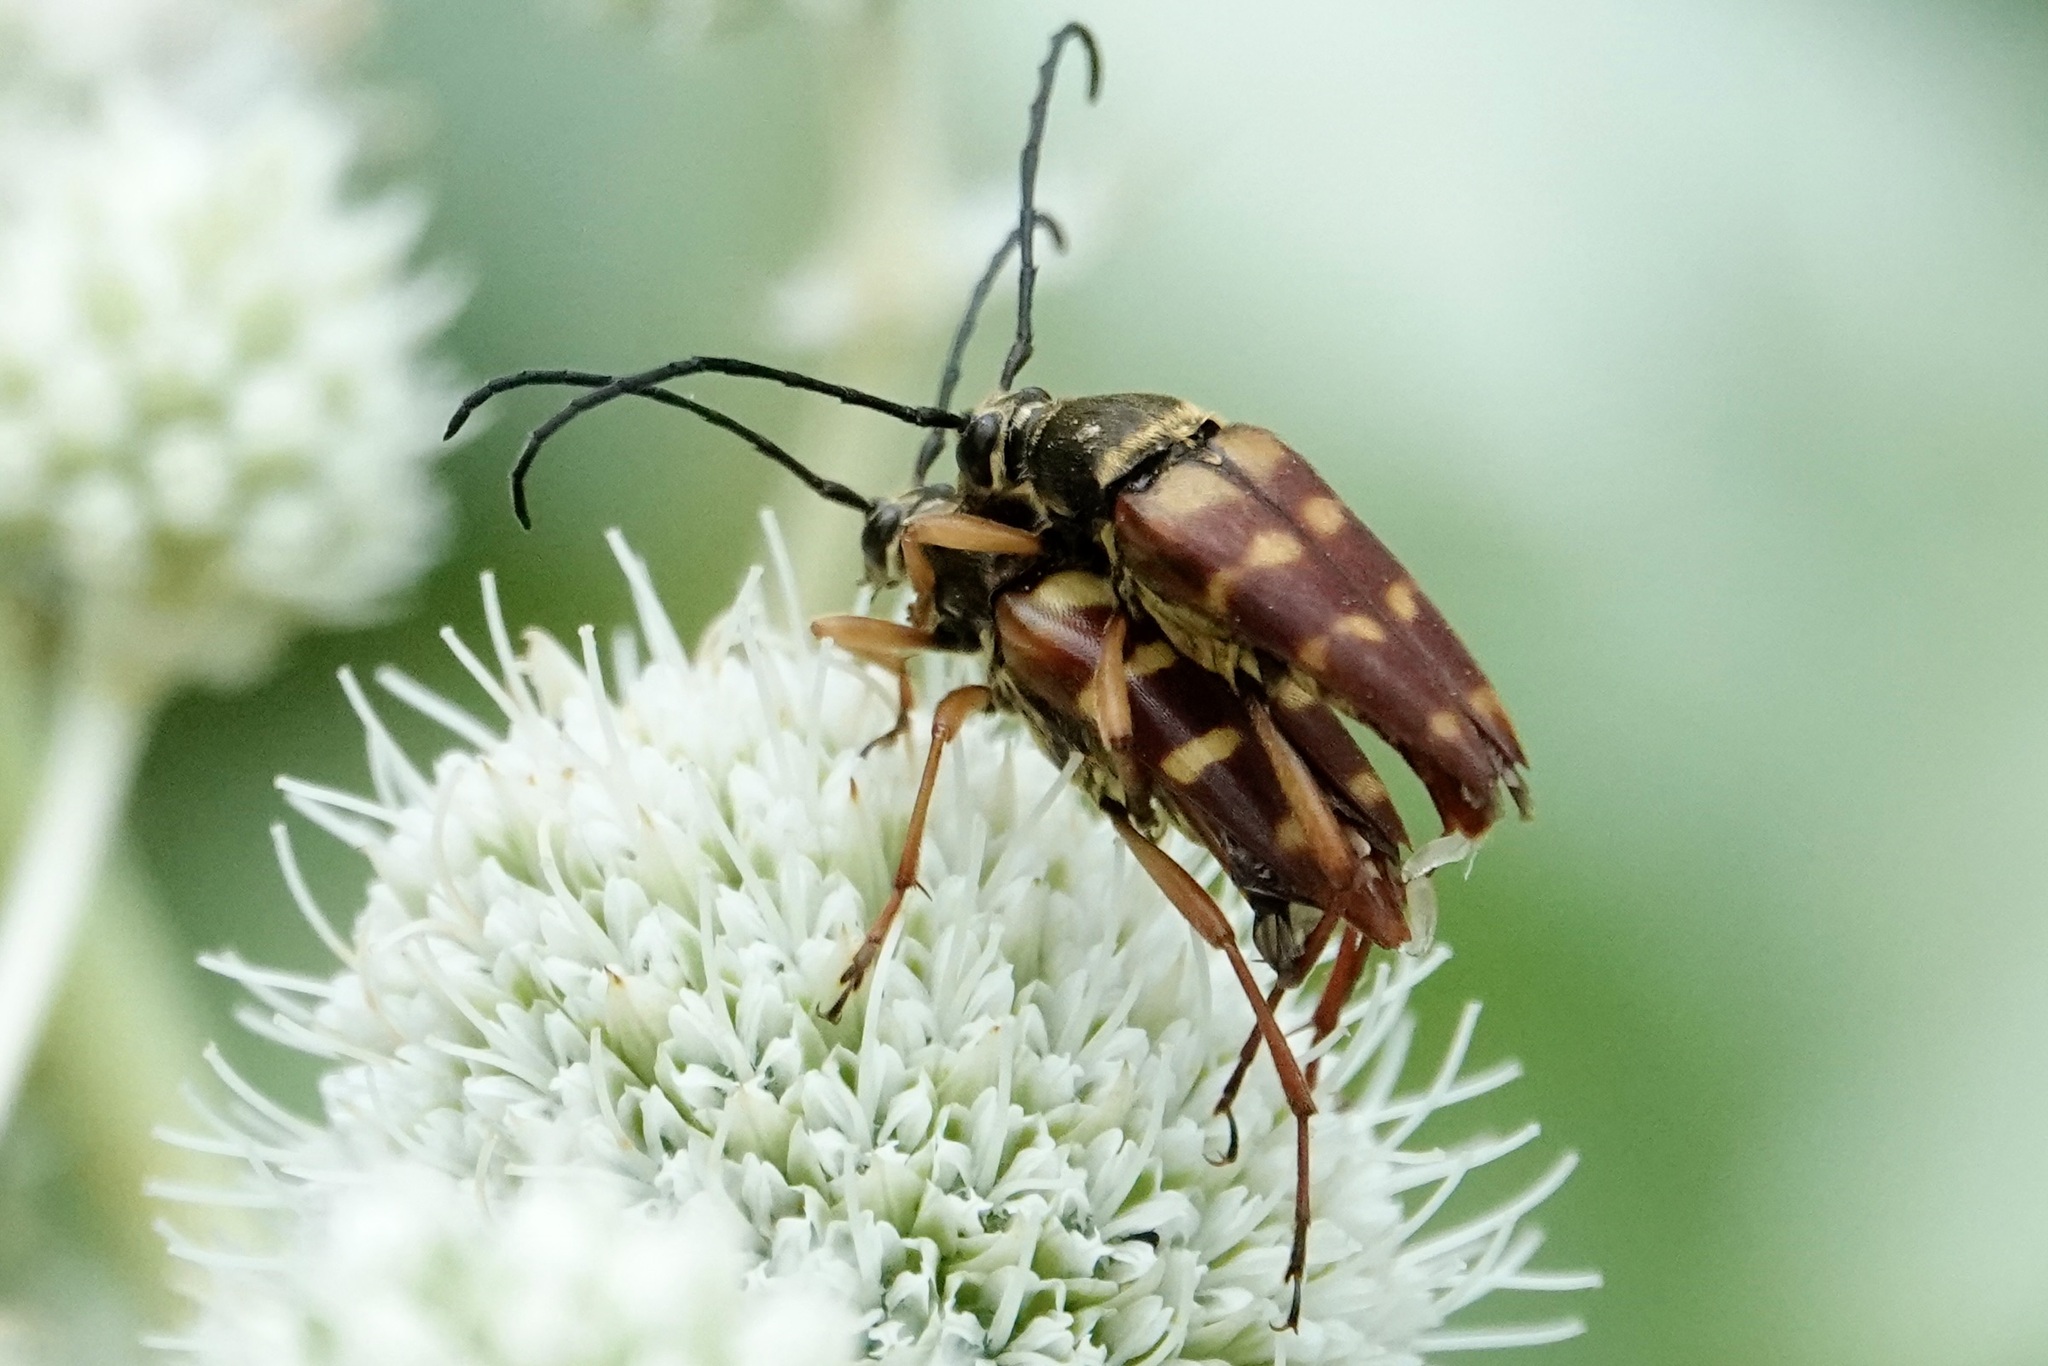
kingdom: Animalia
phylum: Arthropoda
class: Insecta
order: Coleoptera
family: Cerambycidae
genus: Typocerus
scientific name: Typocerus velutinus
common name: Banded longhorn beetle
